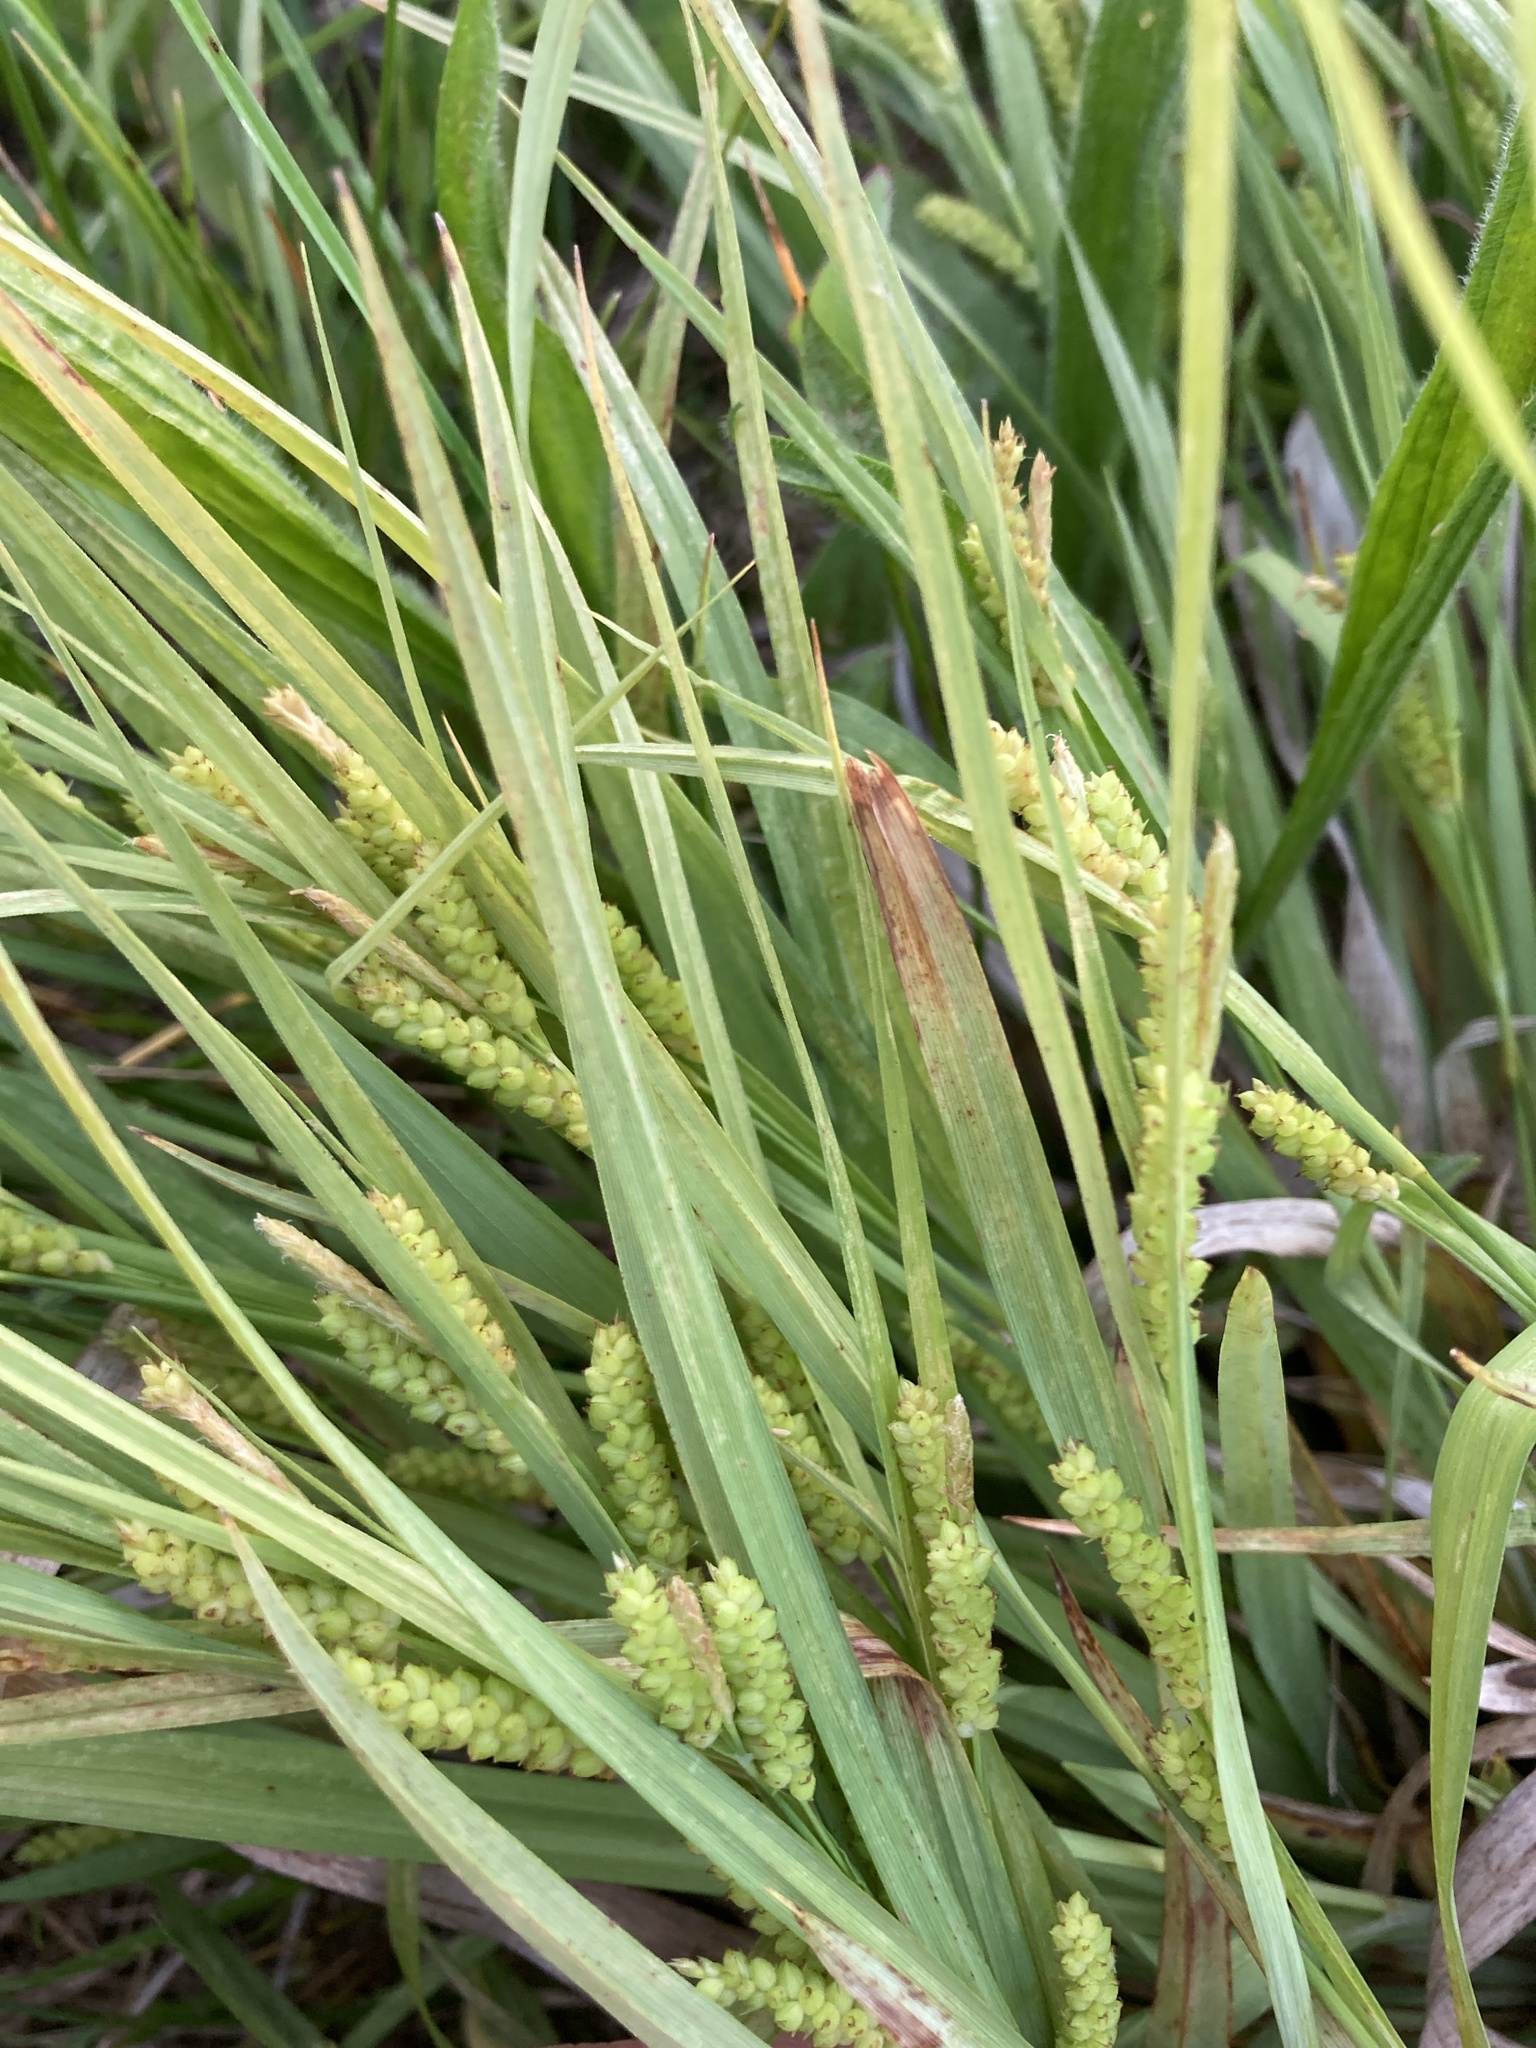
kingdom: Plantae
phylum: Tracheophyta
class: Liliopsida
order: Poales
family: Cyperaceae
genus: Carex
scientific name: Carex granularis
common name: Granular sedge
